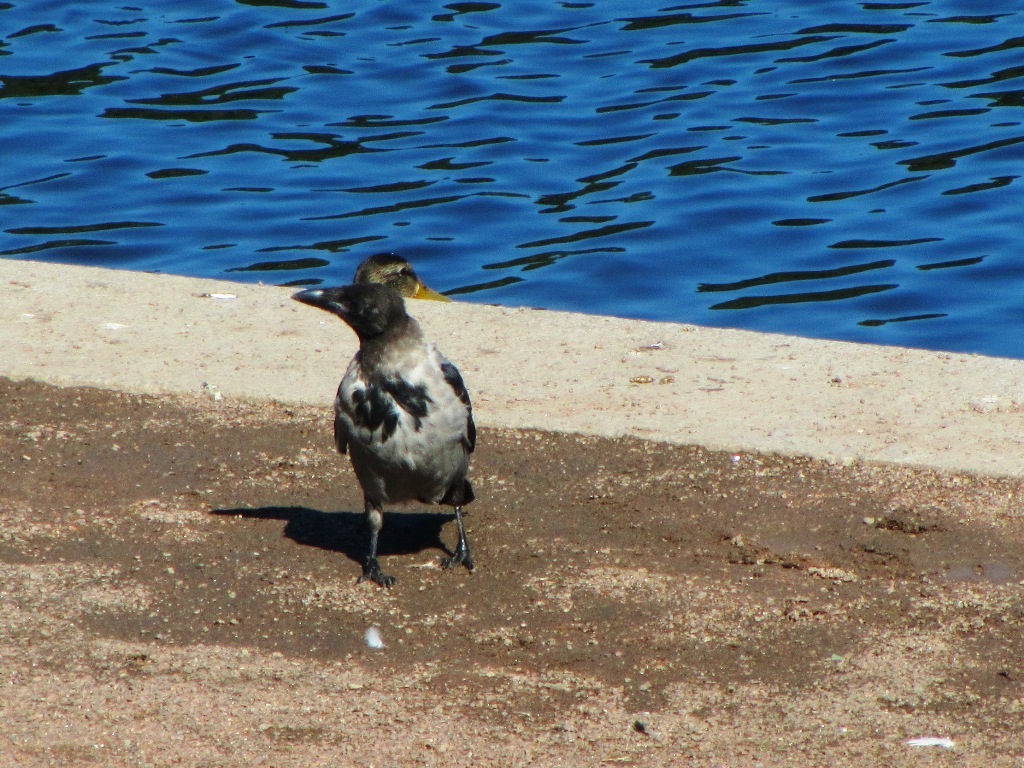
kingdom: Animalia
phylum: Chordata
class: Aves
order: Passeriformes
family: Corvidae
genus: Corvus
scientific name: Corvus cornix
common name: Hooded crow
